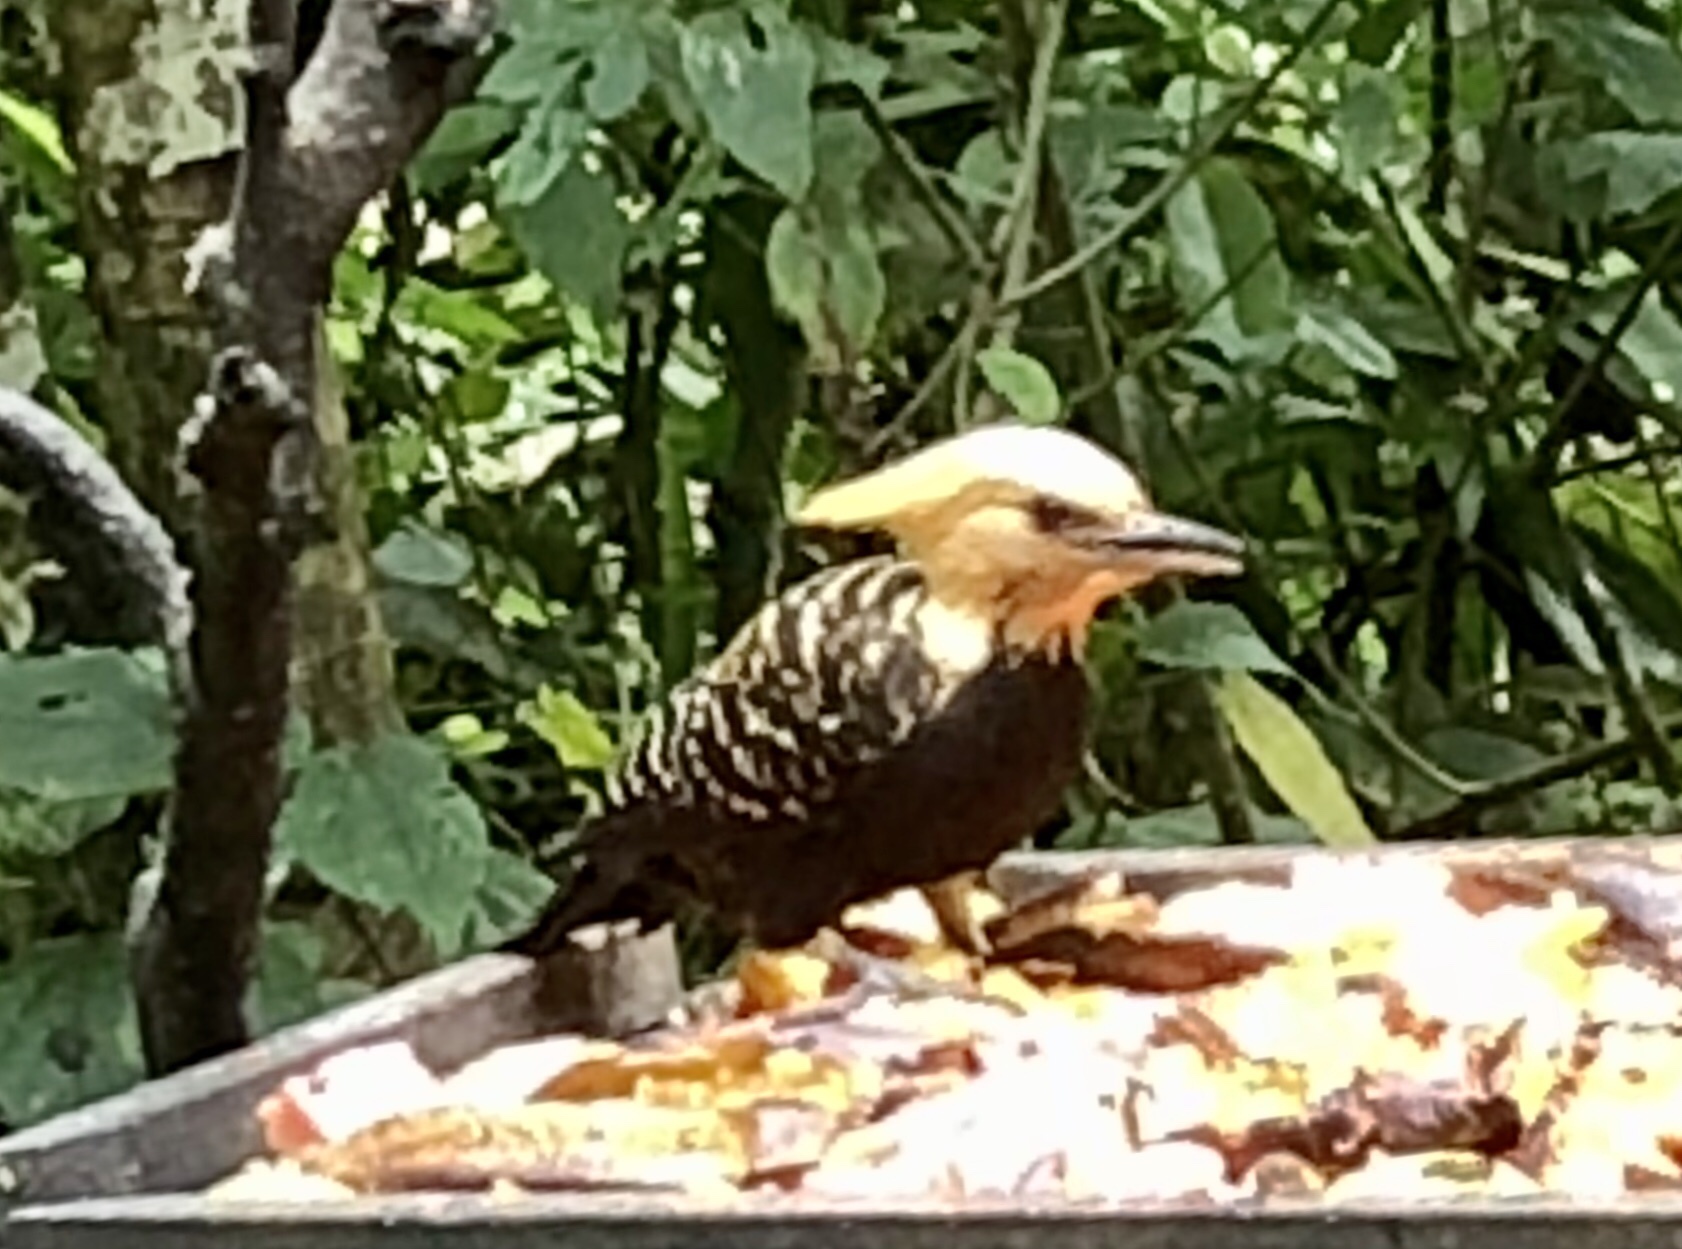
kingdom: Animalia
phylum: Chordata
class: Aves
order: Piciformes
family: Picidae
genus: Celeus
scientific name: Celeus flavescens
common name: Blond-crested woodpecker
